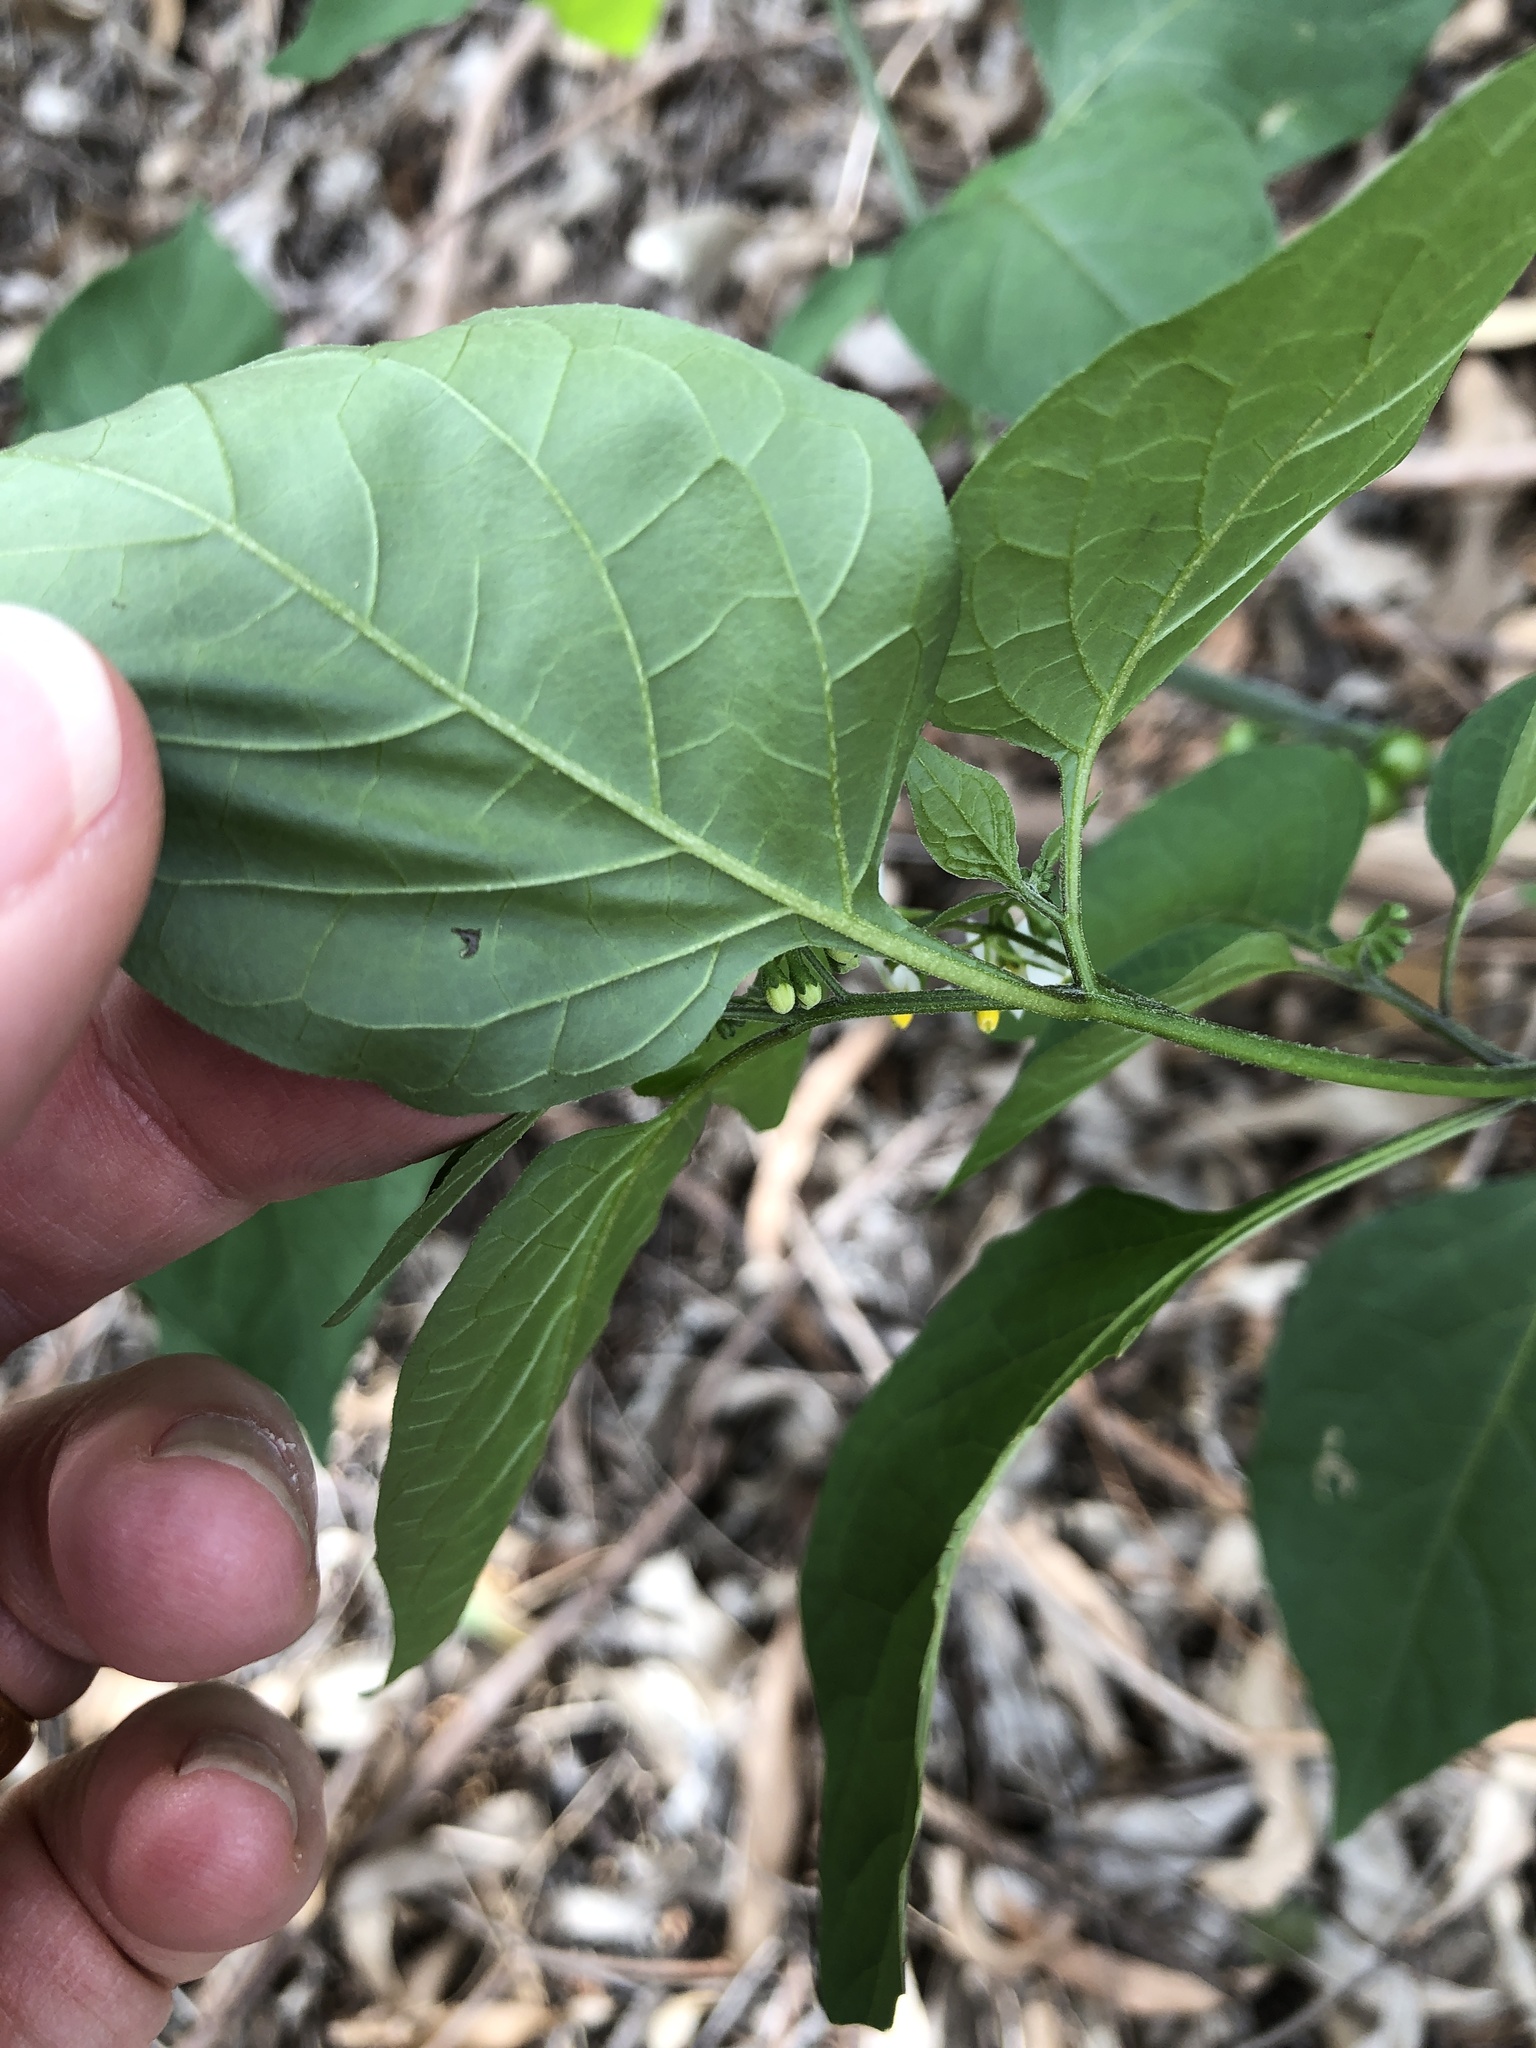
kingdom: Plantae
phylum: Tracheophyta
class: Magnoliopsida
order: Solanales
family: Solanaceae
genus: Solanum
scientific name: Solanum americanum
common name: American black nightshade
